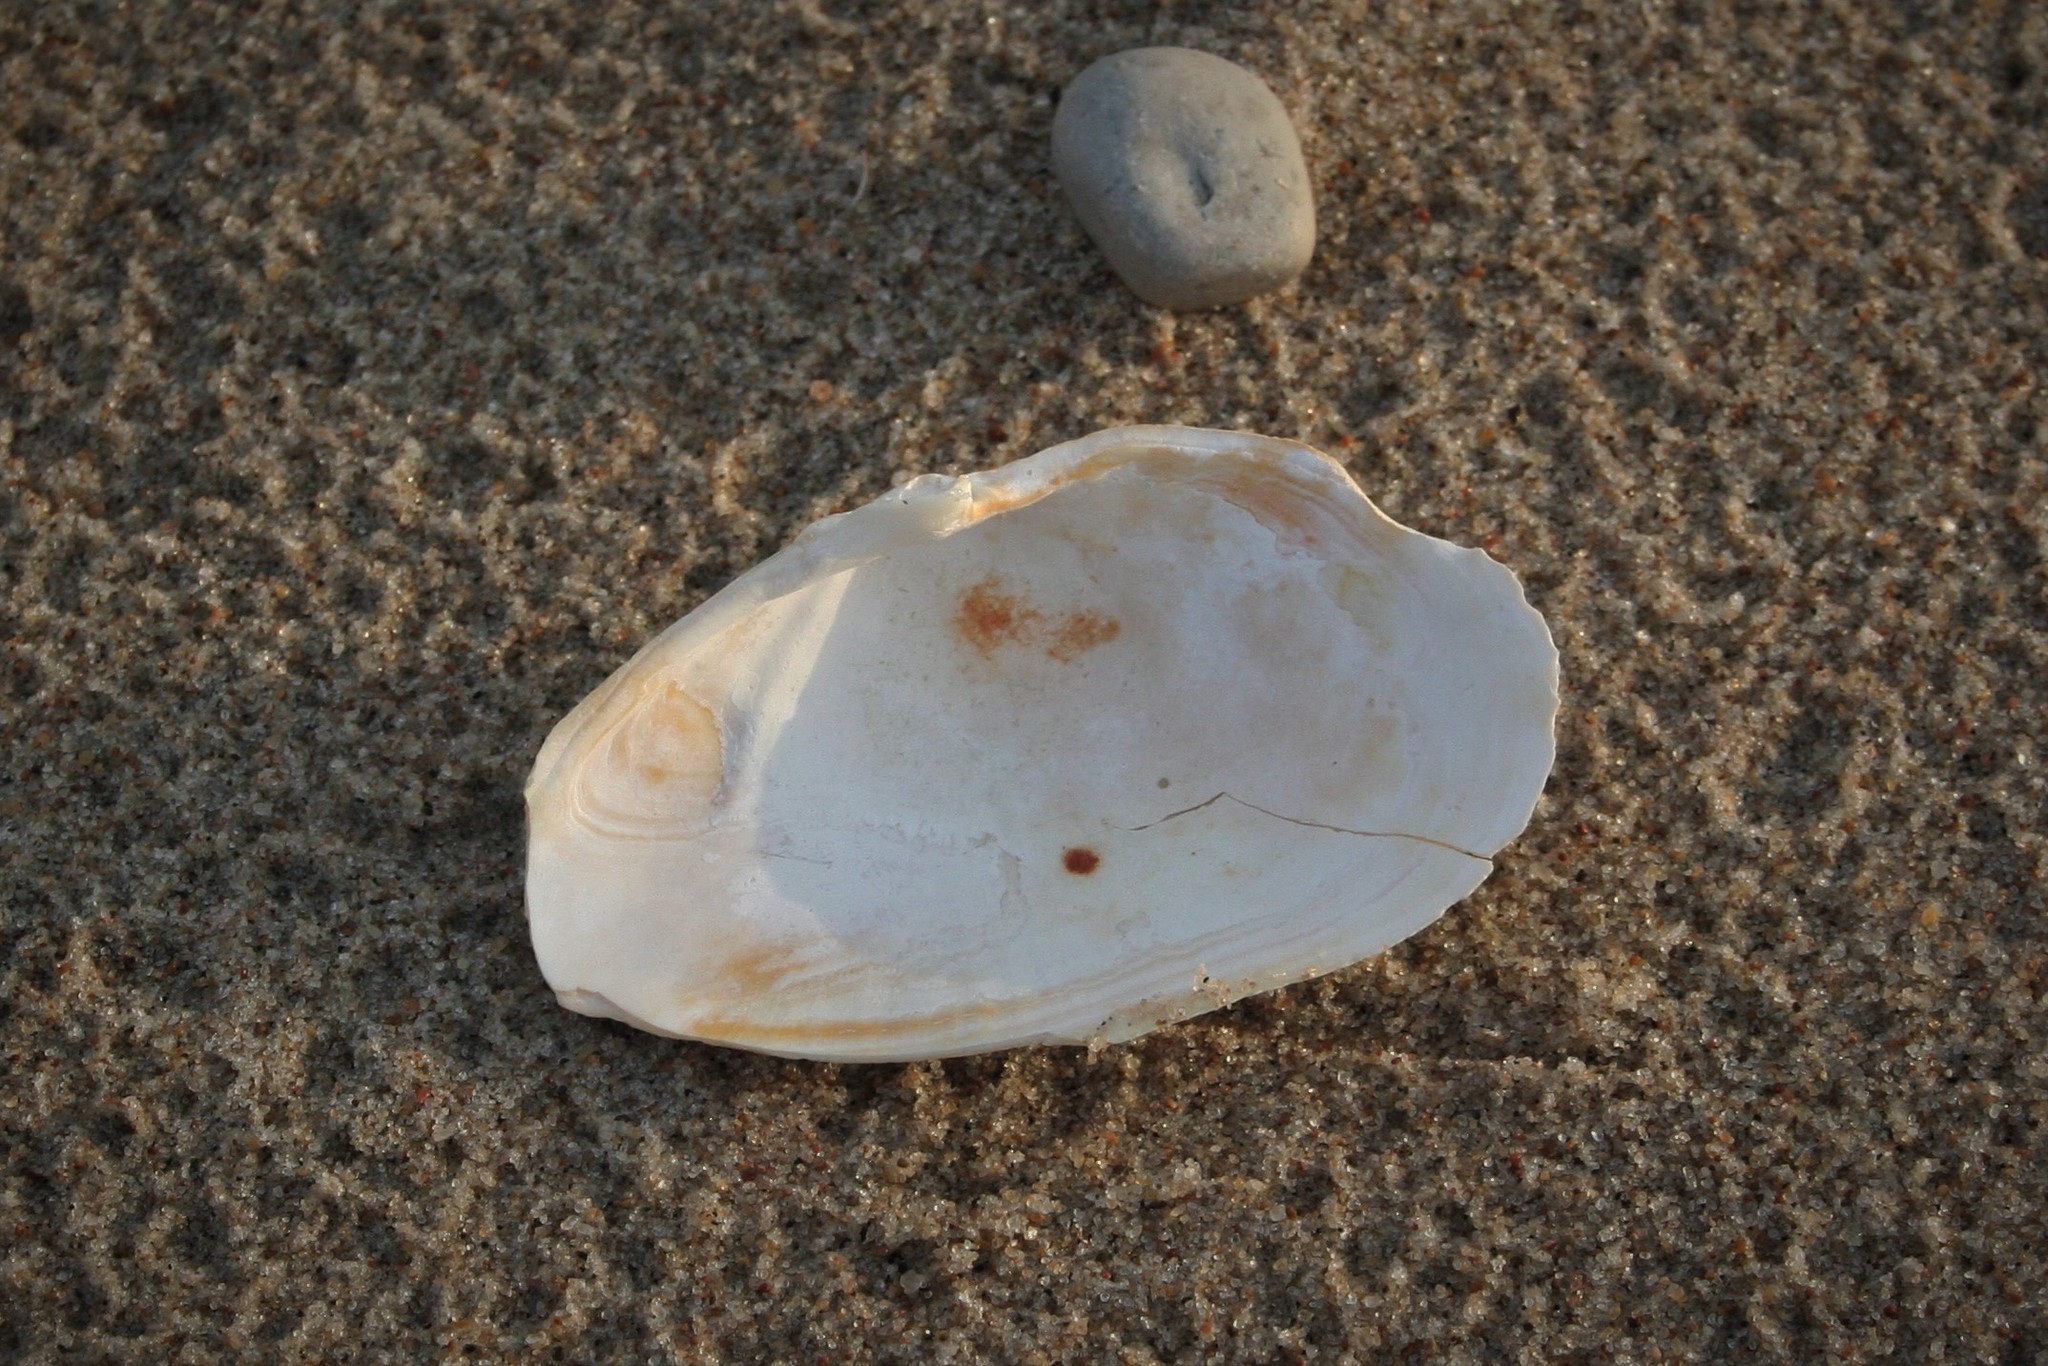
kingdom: Animalia
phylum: Mollusca
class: Bivalvia
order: Myida
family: Myidae
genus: Mya
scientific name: Mya arenaria
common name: Soft-shelled clam
